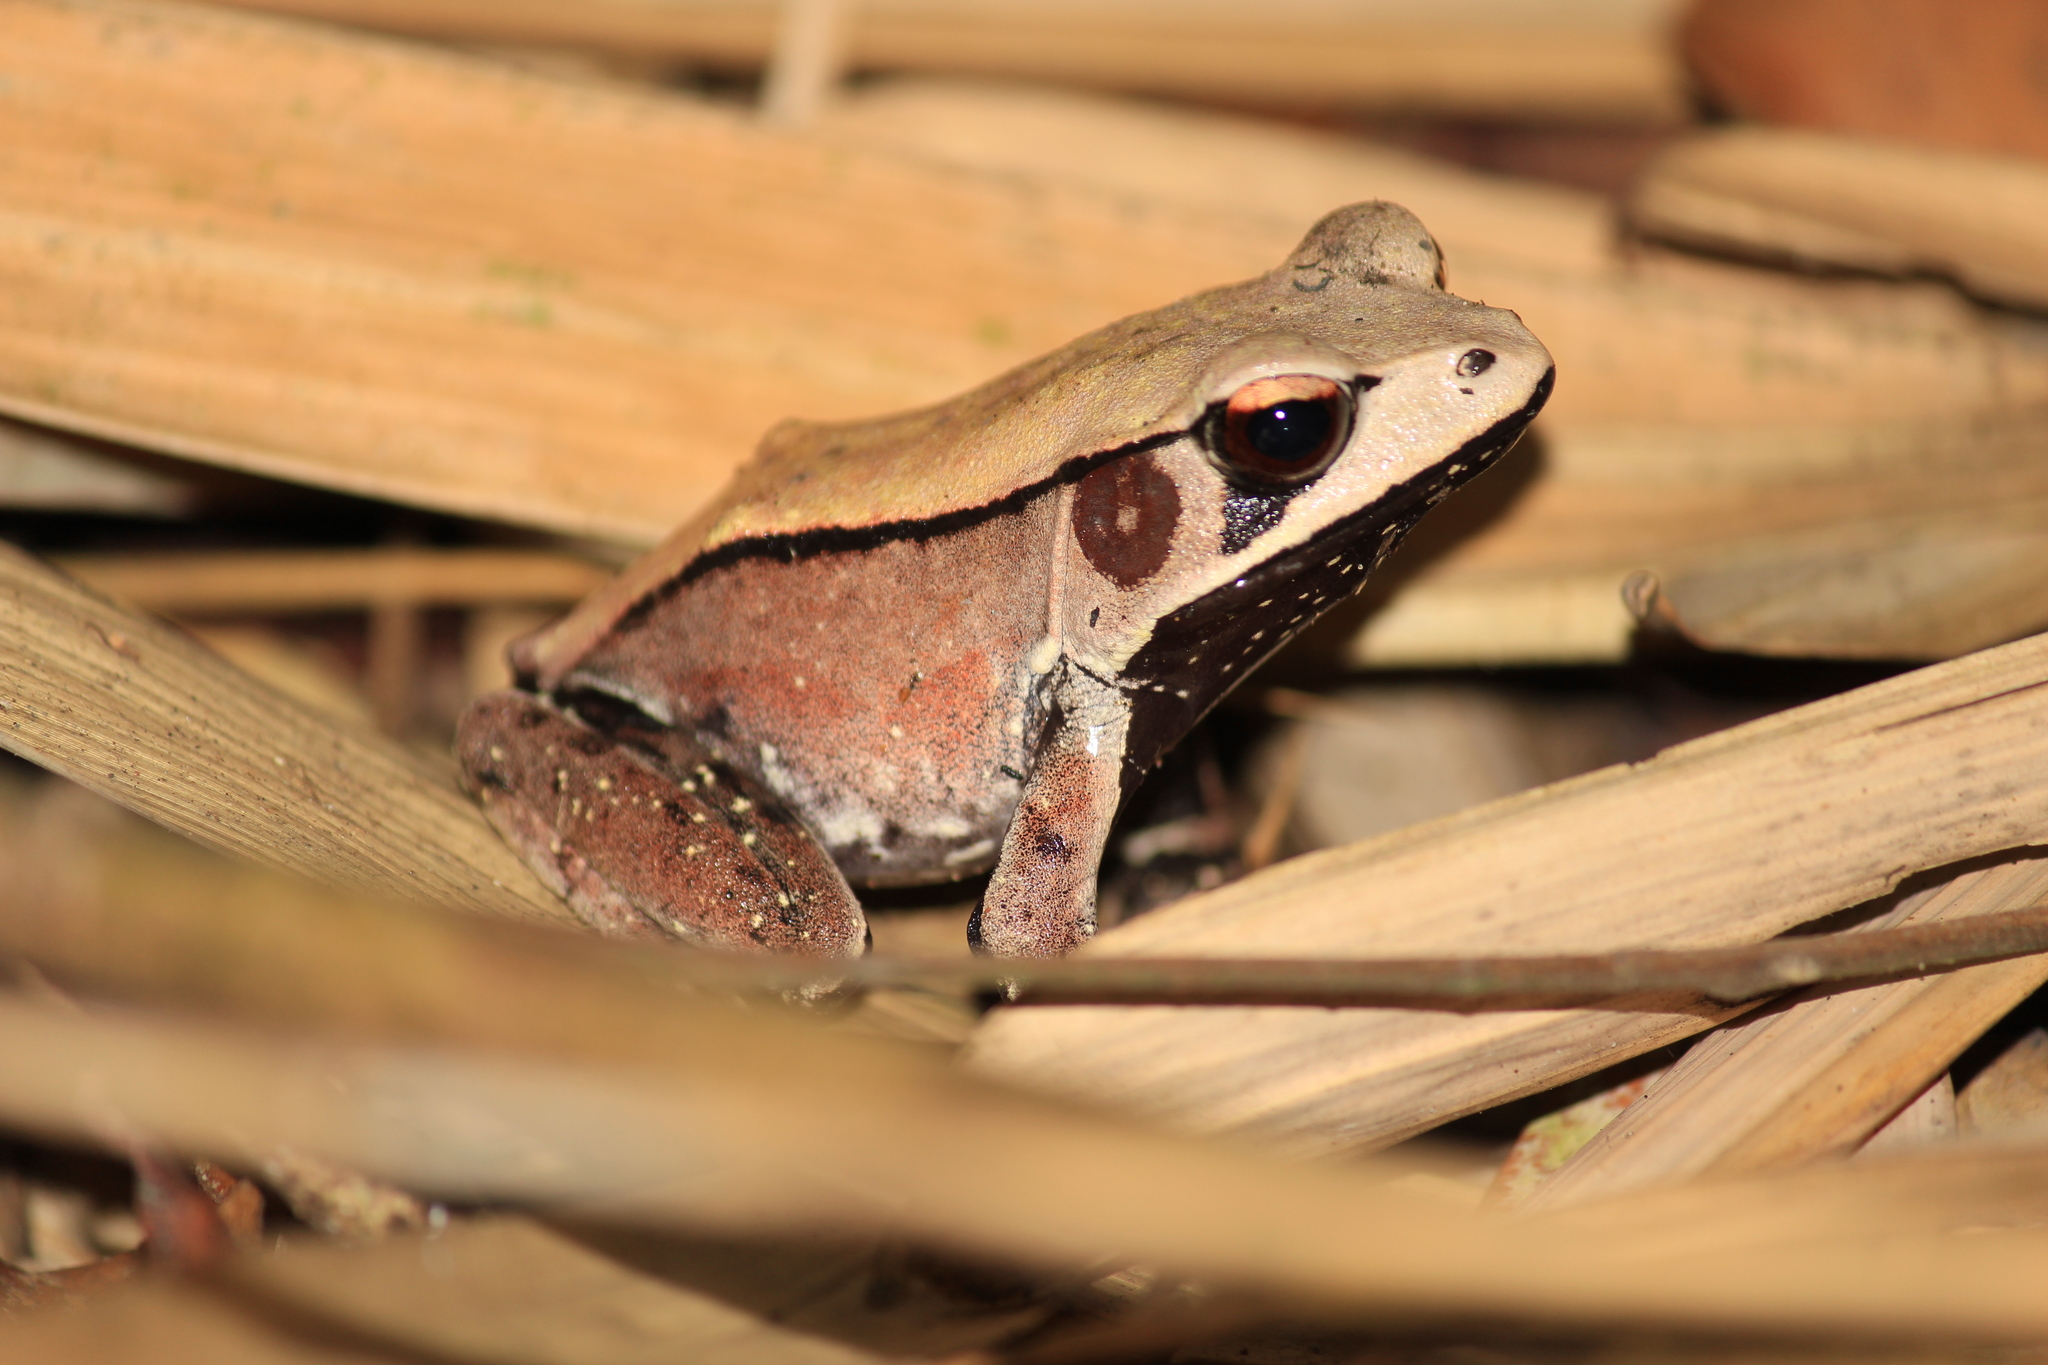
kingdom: Animalia
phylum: Chordata
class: Amphibia
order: Anura
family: Ranidae
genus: Clinotarsus
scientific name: Clinotarsus curtipes
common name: Bicoloured frog
